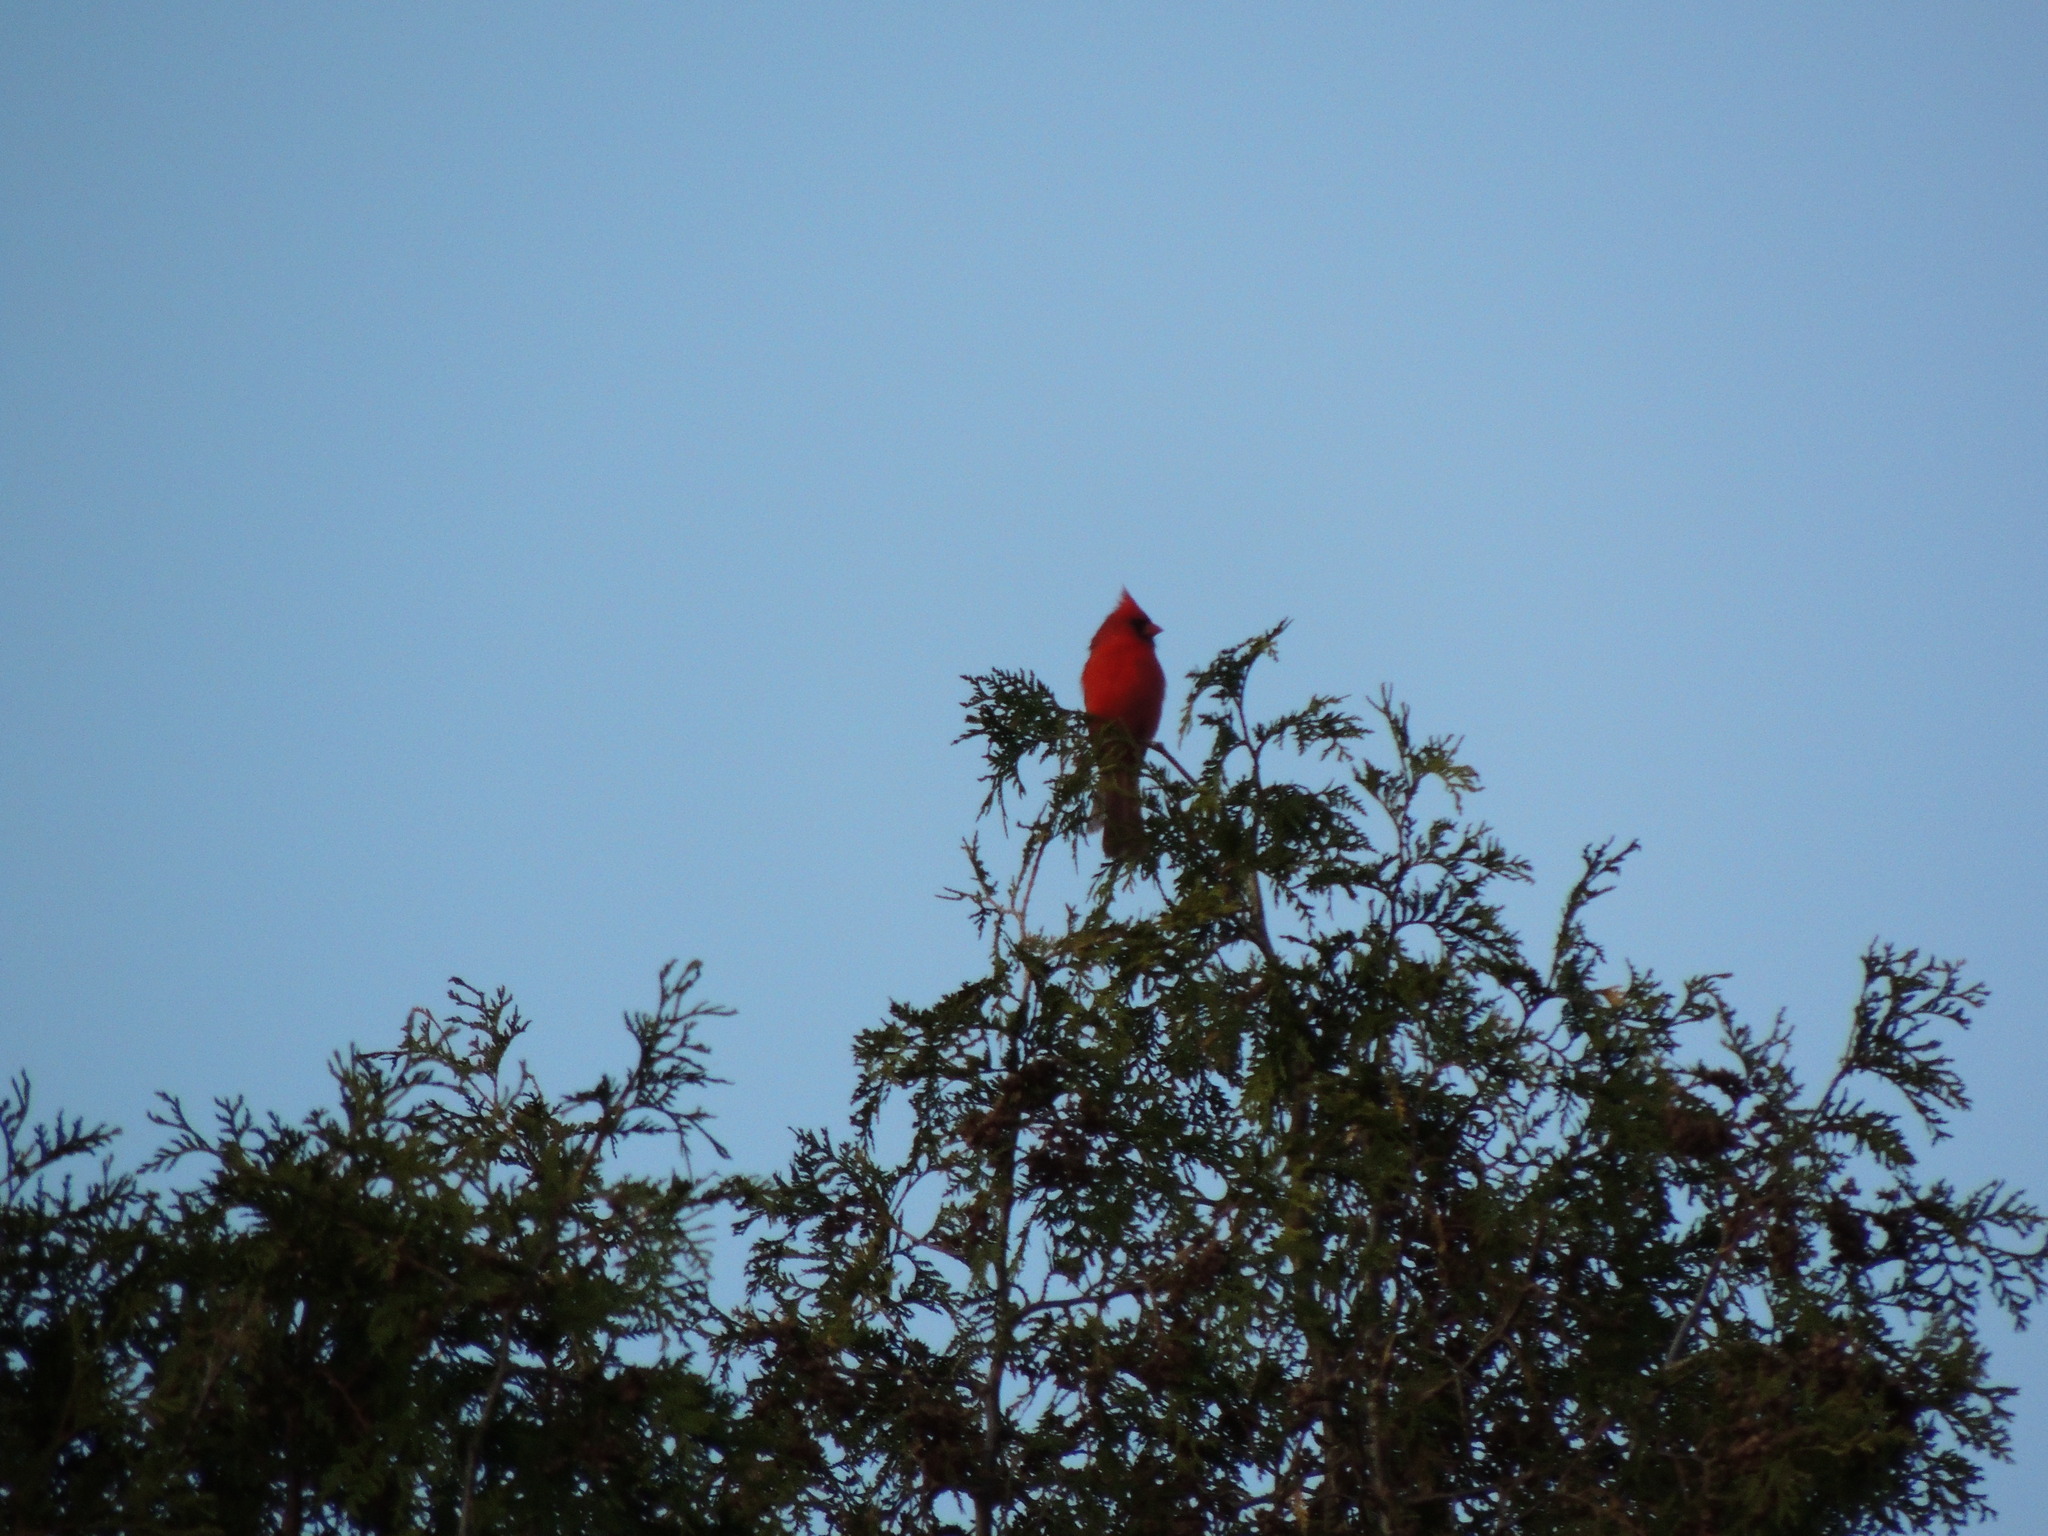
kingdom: Animalia
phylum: Chordata
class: Aves
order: Passeriformes
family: Cardinalidae
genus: Cardinalis
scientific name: Cardinalis cardinalis
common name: Northern cardinal
